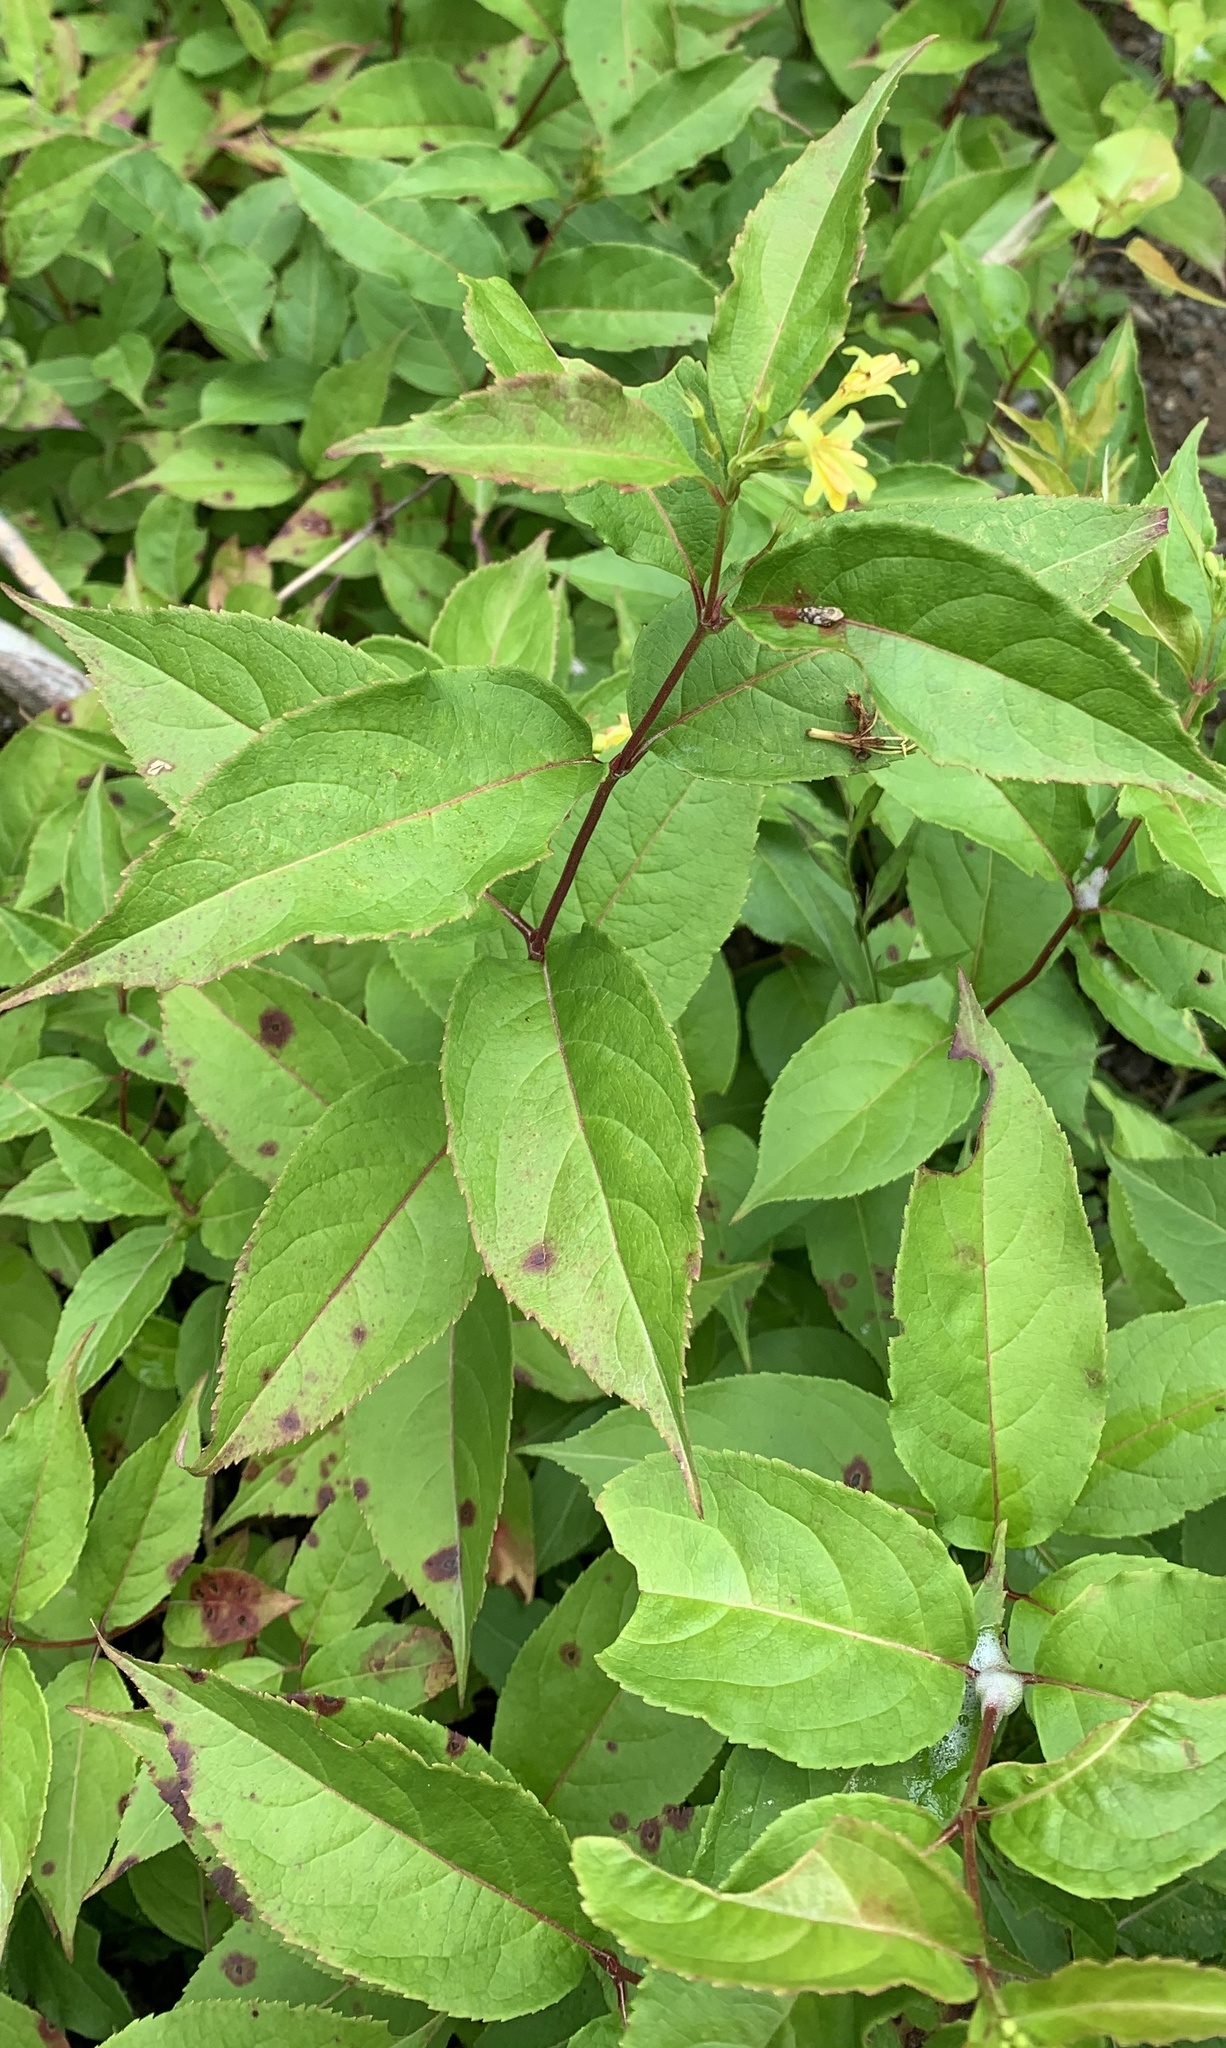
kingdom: Plantae
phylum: Tracheophyta
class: Magnoliopsida
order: Dipsacales
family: Caprifoliaceae
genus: Diervilla
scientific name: Diervilla lonicera
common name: Bush-honeysuckle
